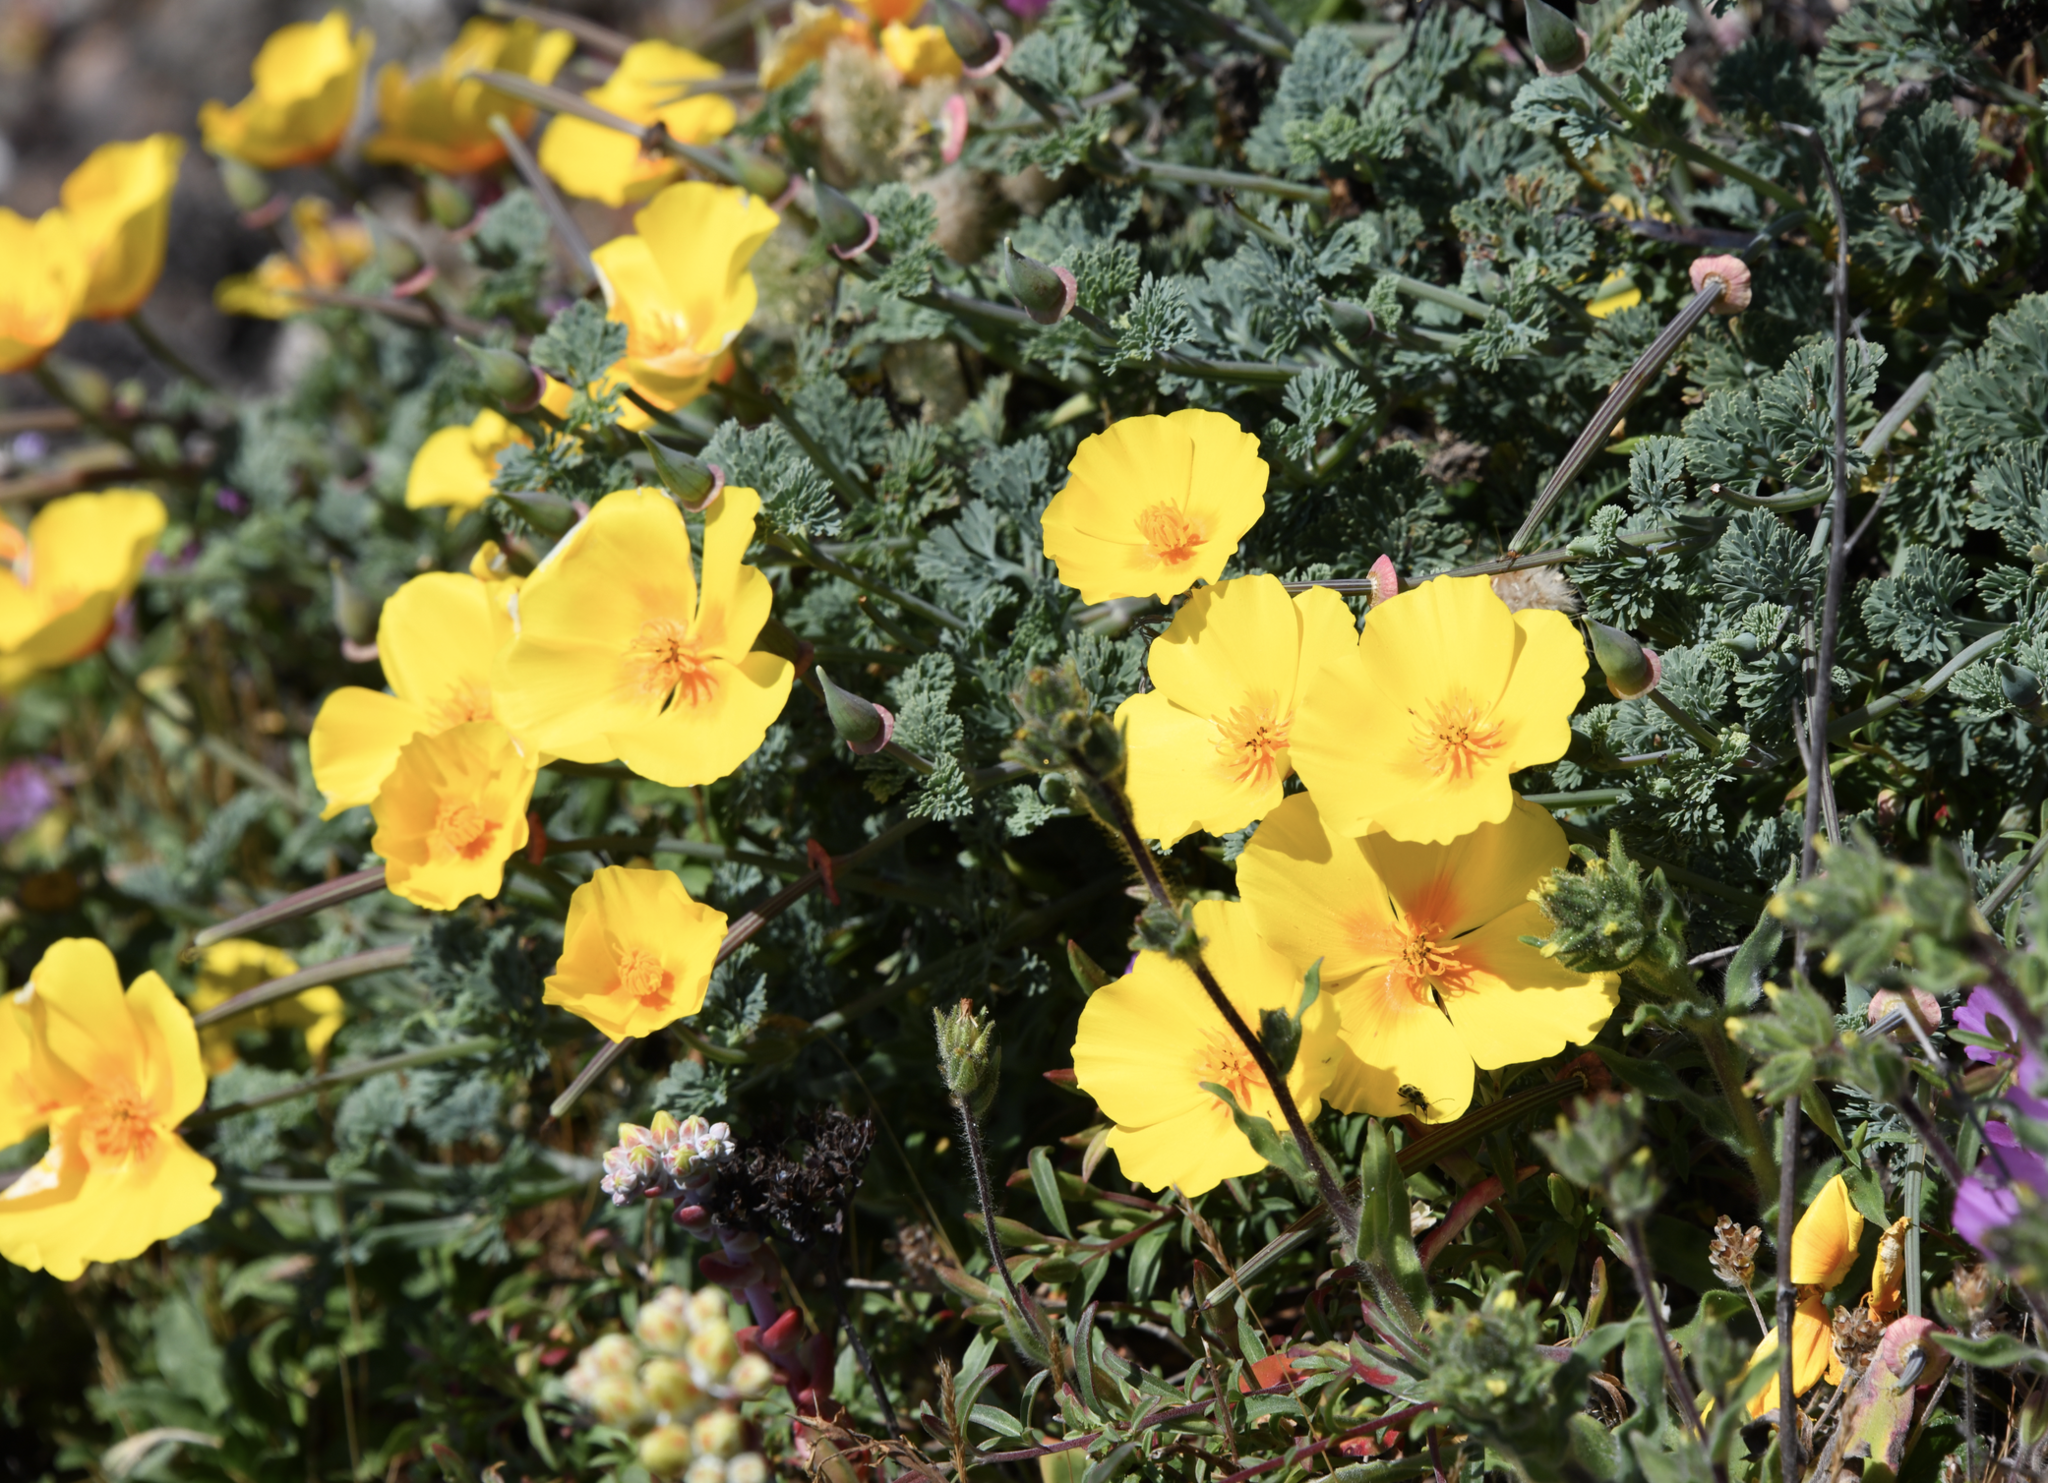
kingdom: Plantae
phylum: Tracheophyta
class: Magnoliopsida
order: Ranunculales
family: Papaveraceae
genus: Eschscholzia
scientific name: Eschscholzia californica
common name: California poppy
